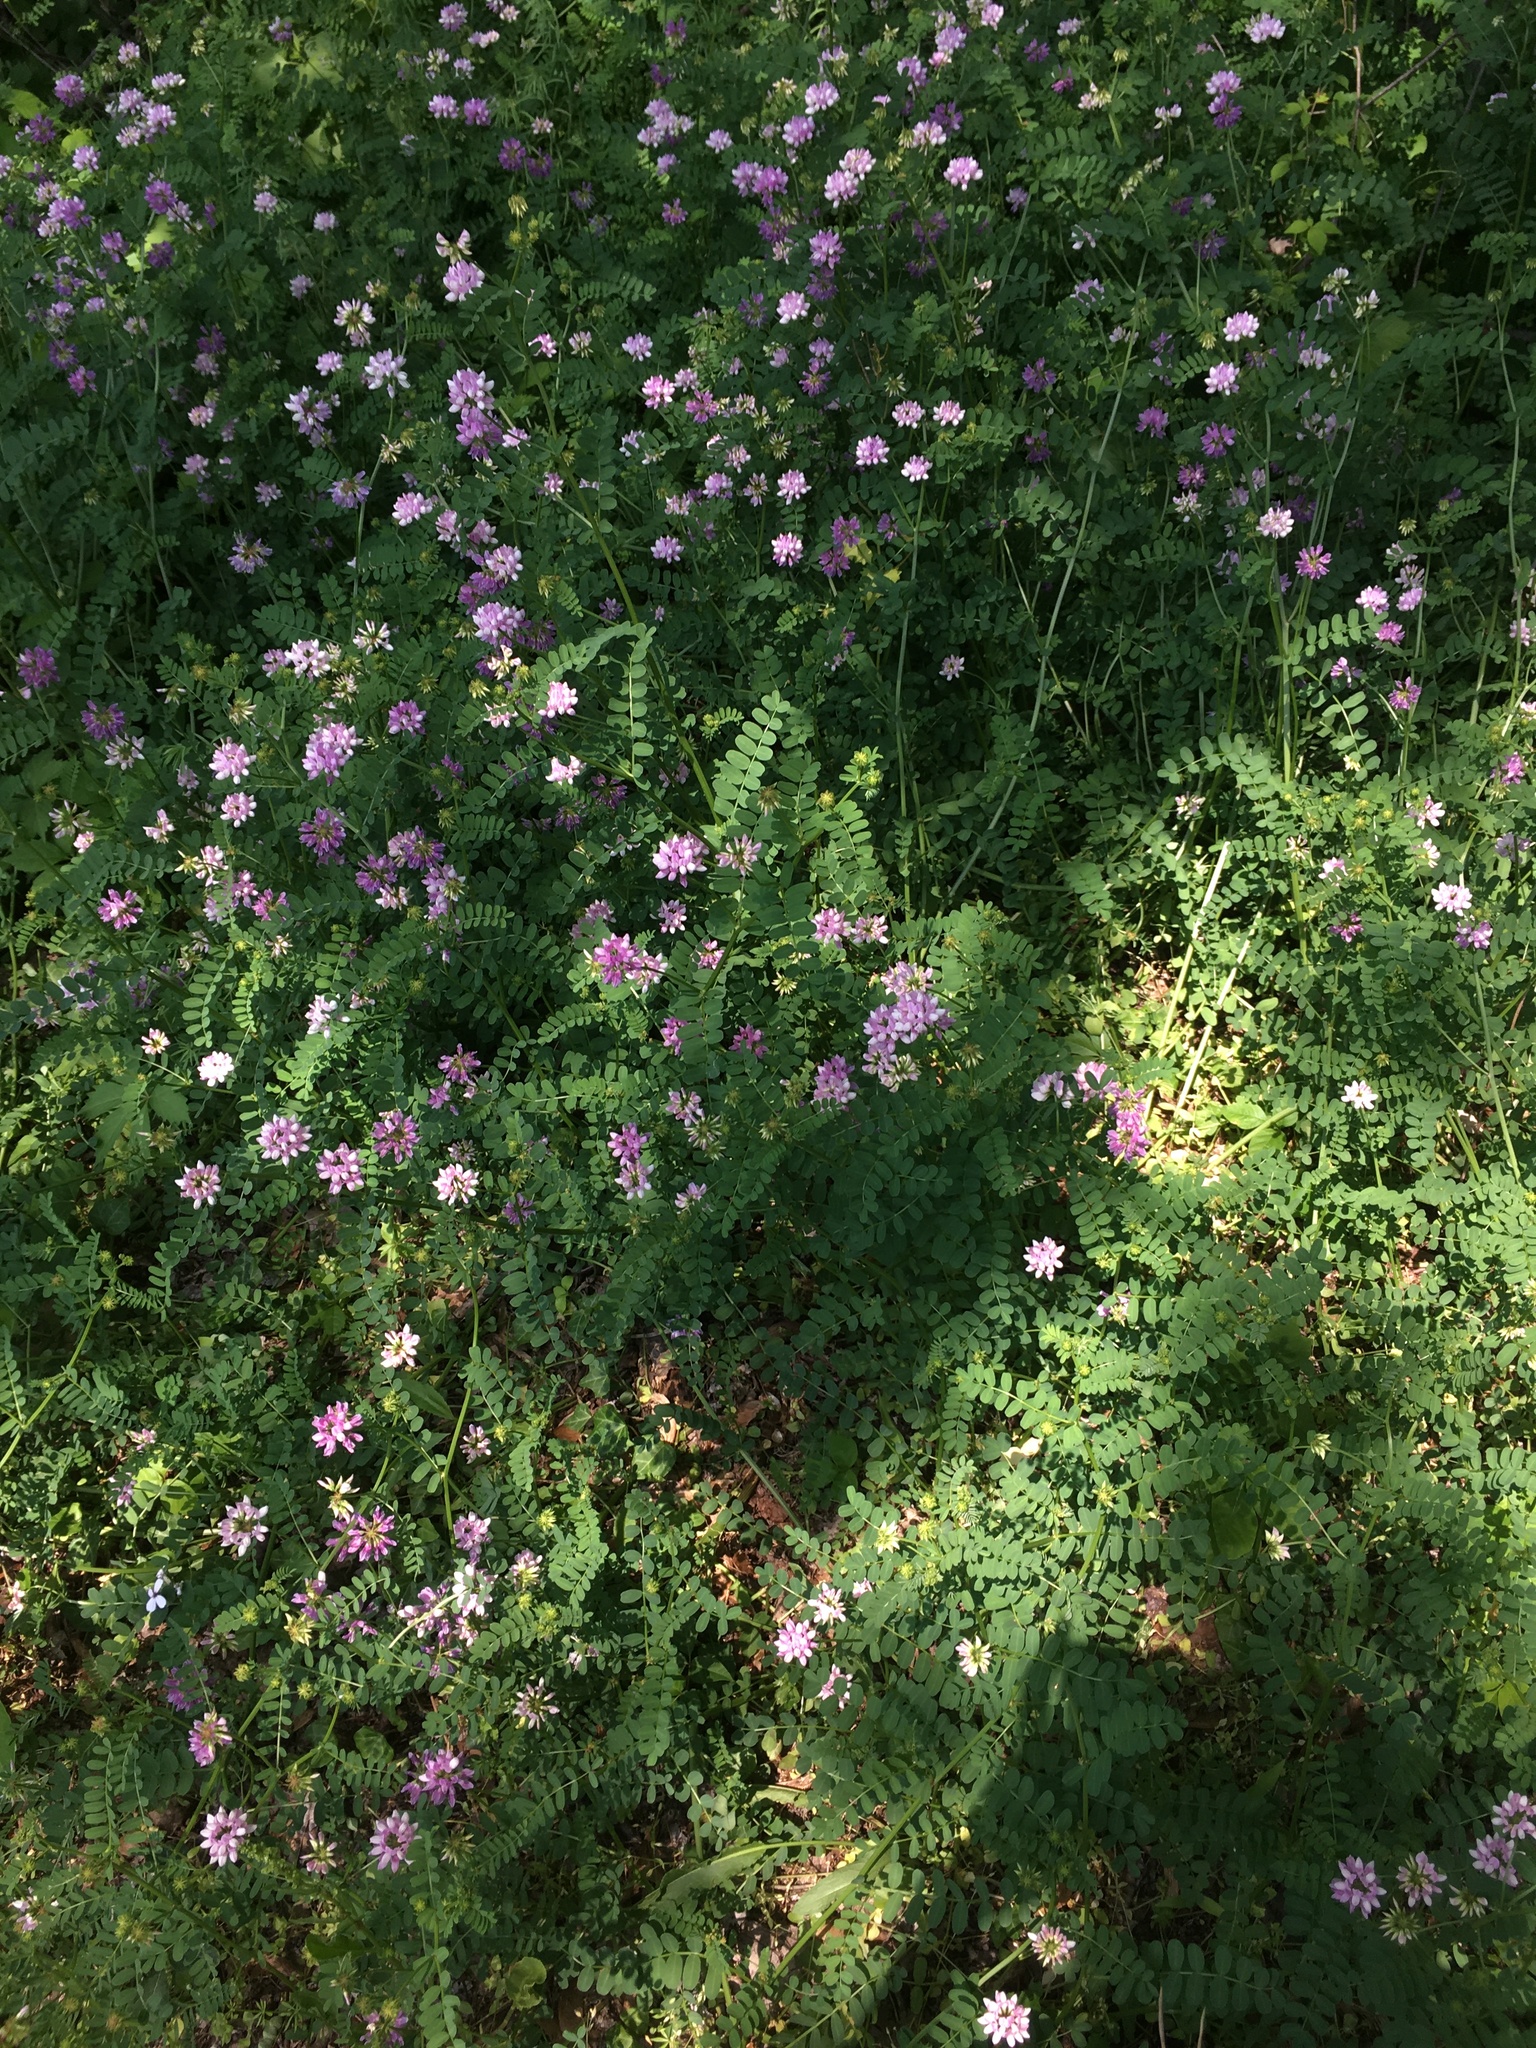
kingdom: Plantae
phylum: Tracheophyta
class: Magnoliopsida
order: Fabales
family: Fabaceae
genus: Coronilla
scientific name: Coronilla varia
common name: Crownvetch
